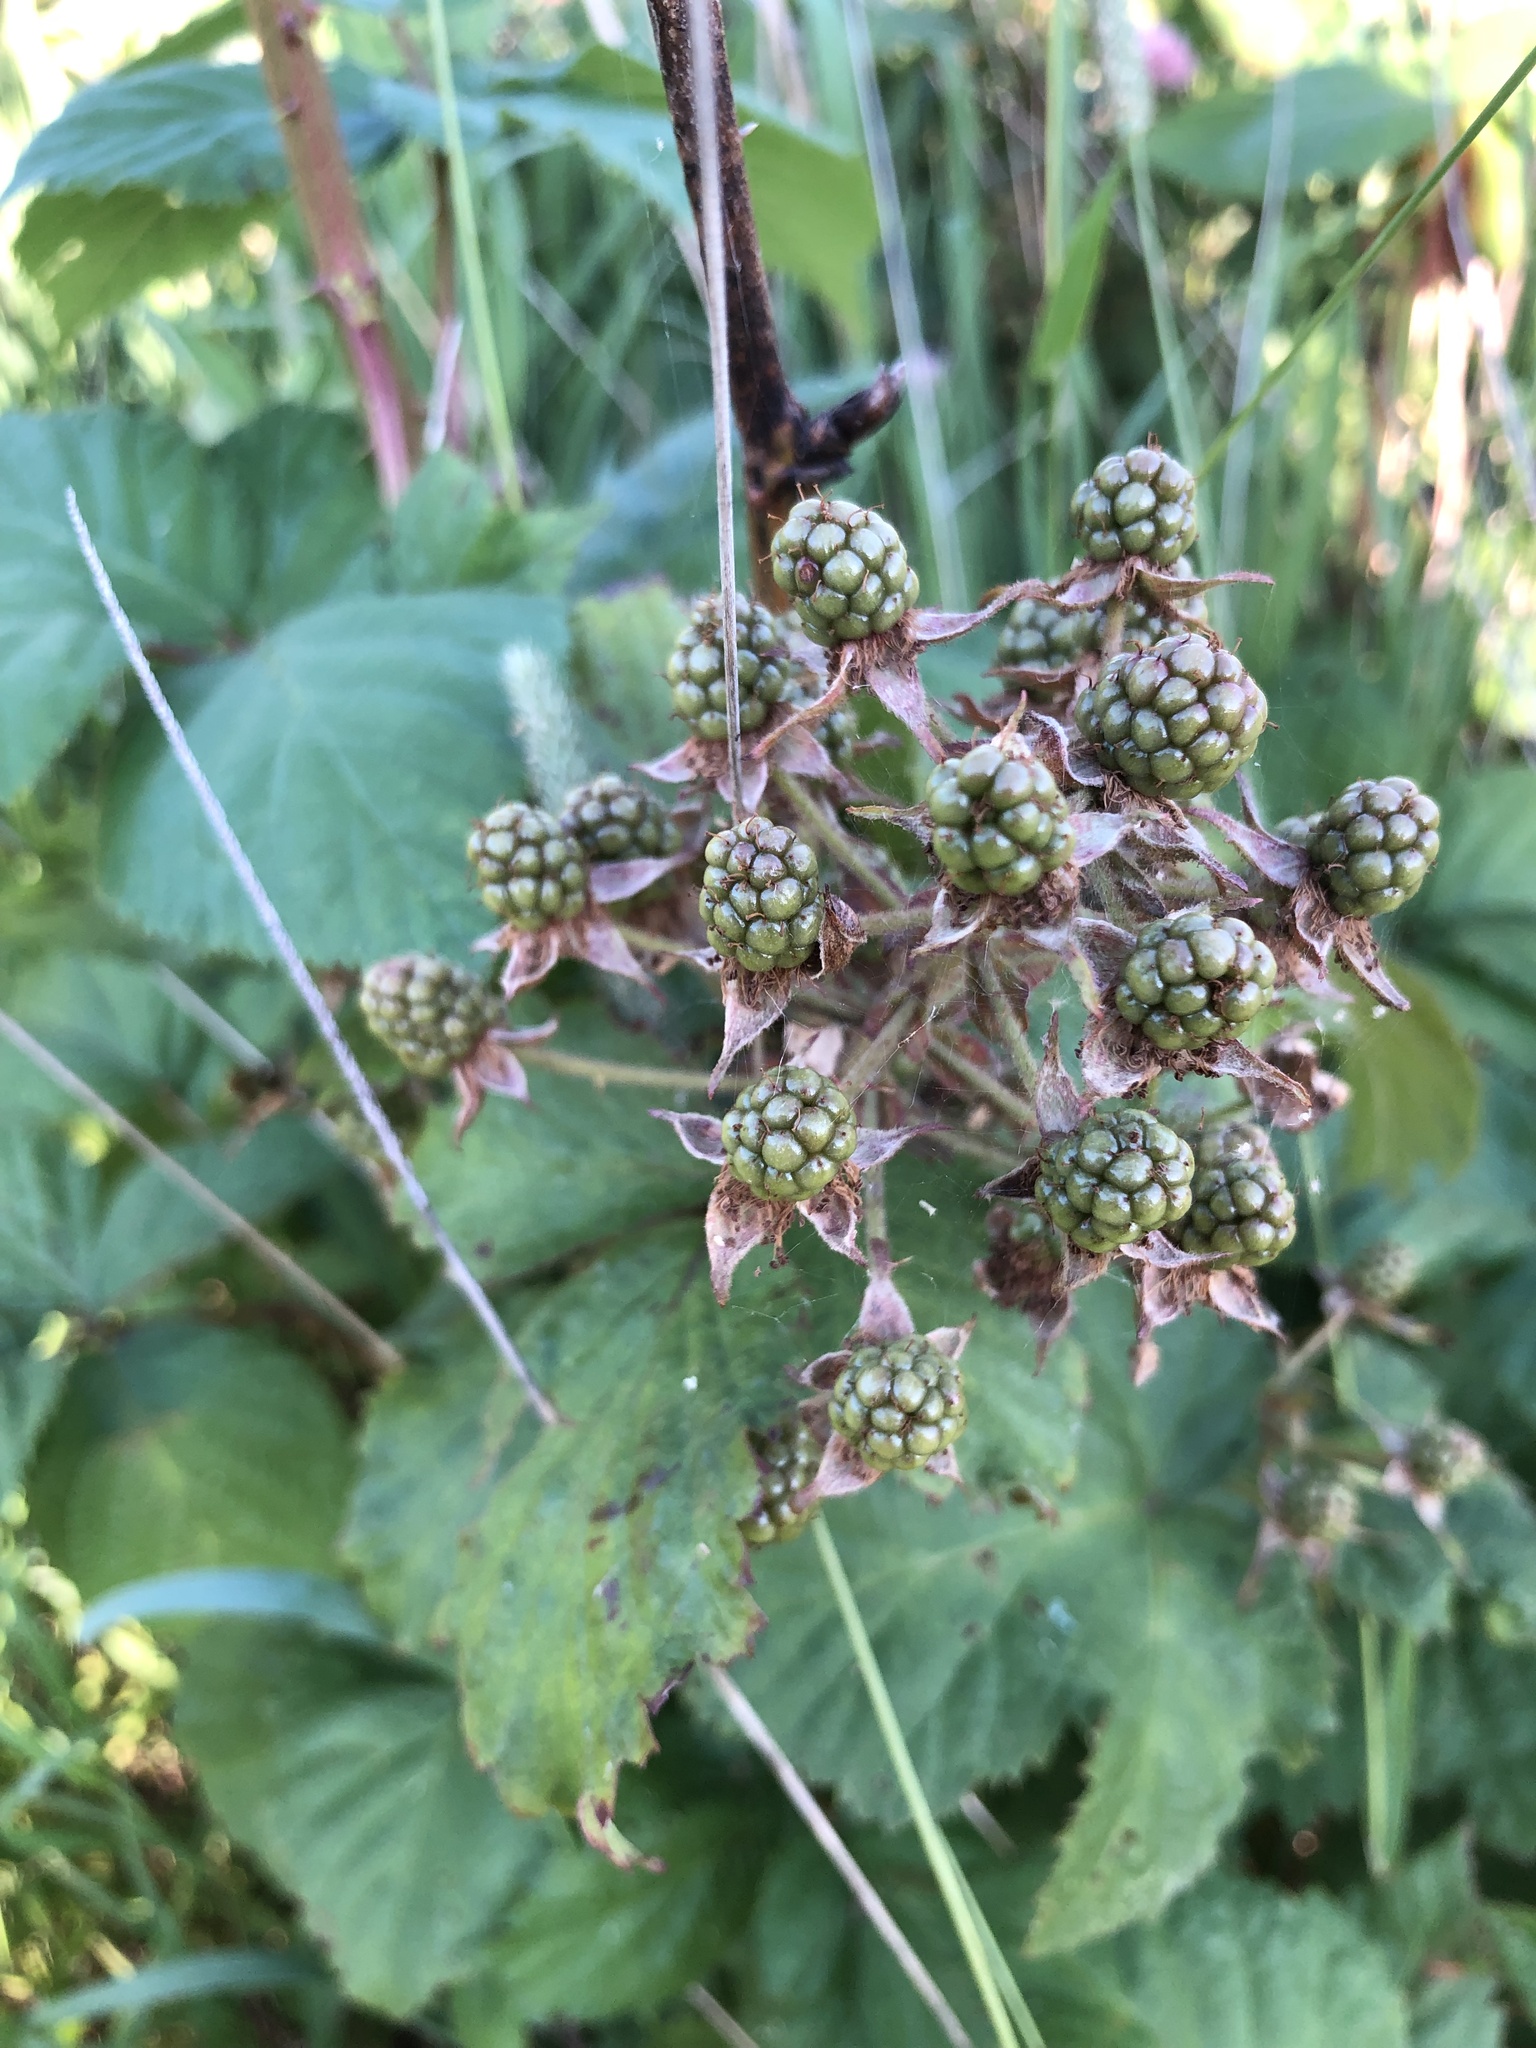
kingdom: Plantae
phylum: Tracheophyta
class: Magnoliopsida
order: Rosales
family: Rosaceae
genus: Rubus
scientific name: Rubus allegheniensis
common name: Allegheny blackberry
